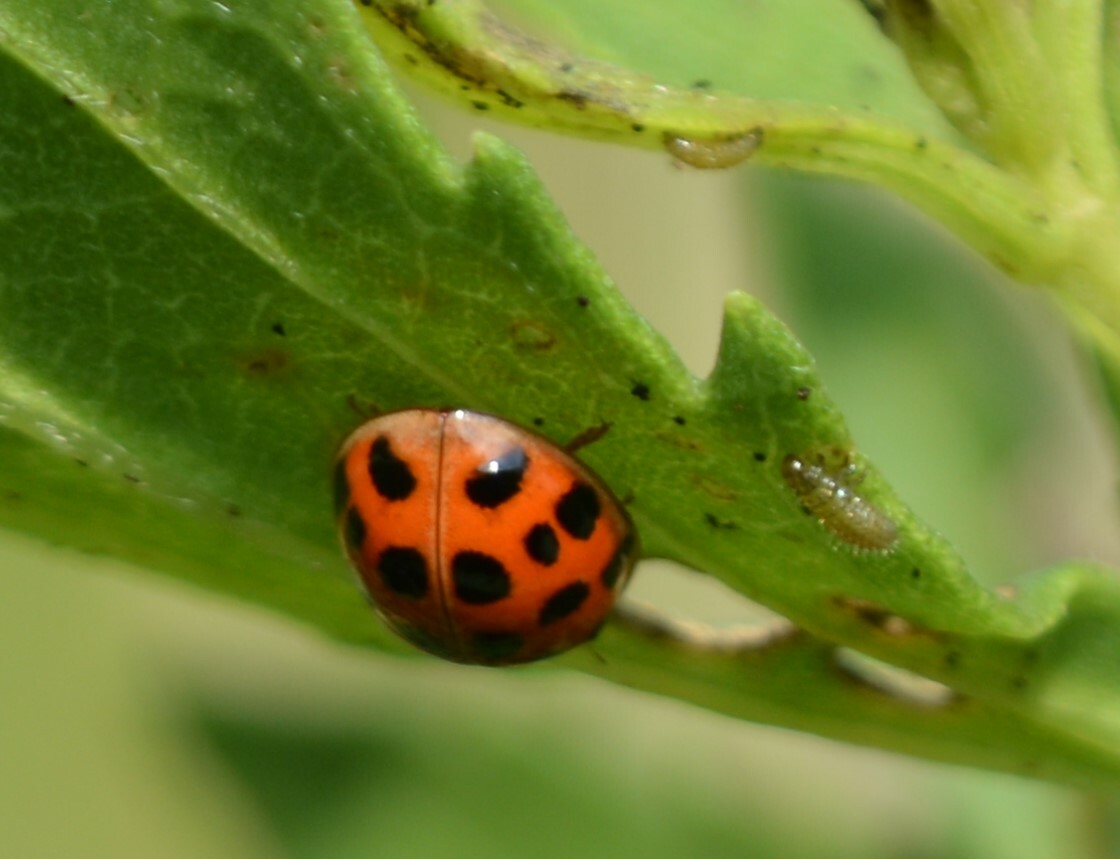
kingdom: Animalia
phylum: Arthropoda
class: Insecta
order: Coleoptera
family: Coccinellidae
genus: Harmonia
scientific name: Harmonia axyridis
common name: Harlequin ladybird
